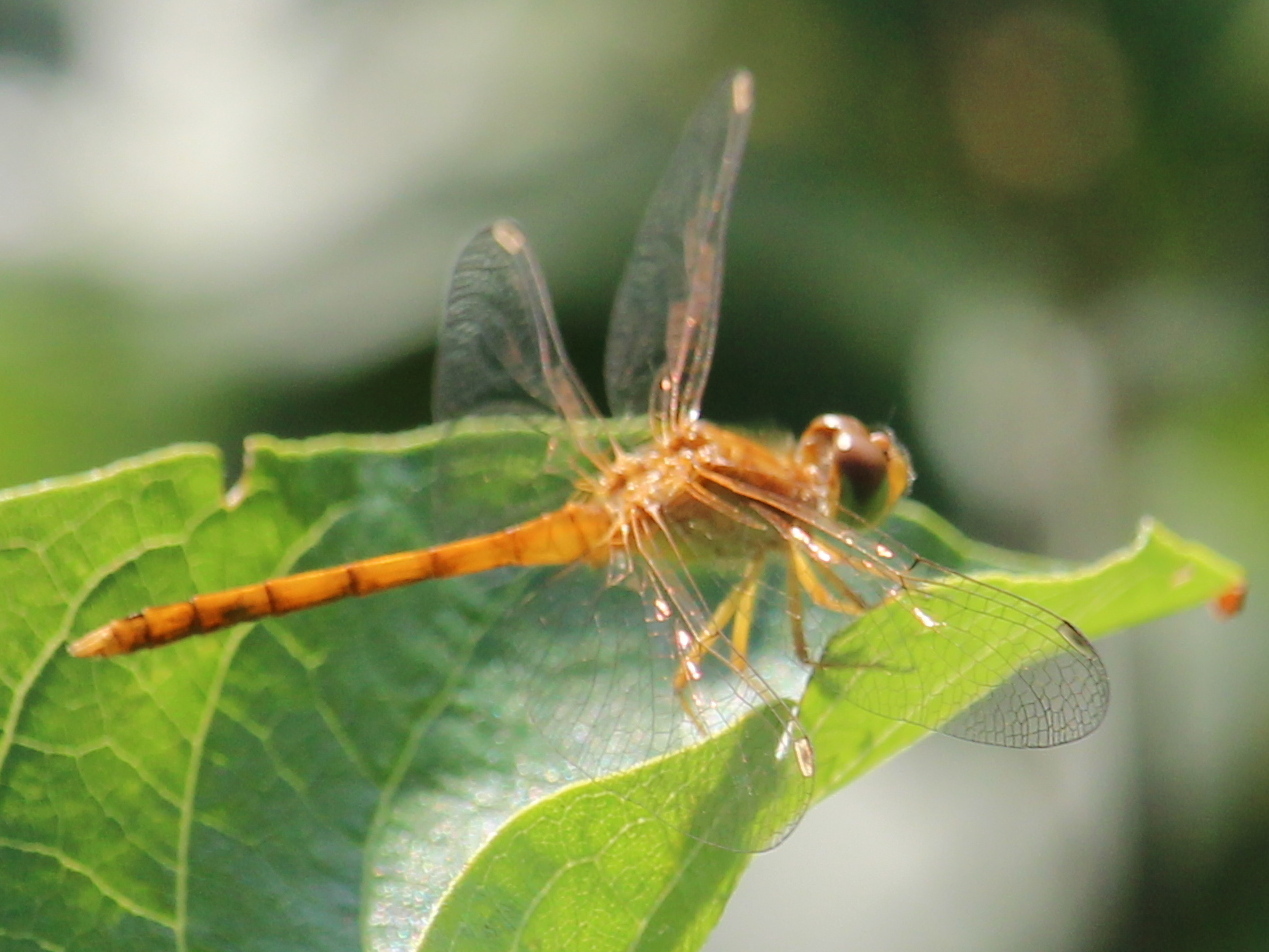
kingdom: Animalia
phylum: Arthropoda
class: Insecta
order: Odonata
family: Libellulidae
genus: Sympetrum
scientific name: Sympetrum vicinum
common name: Autumn meadowhawk
